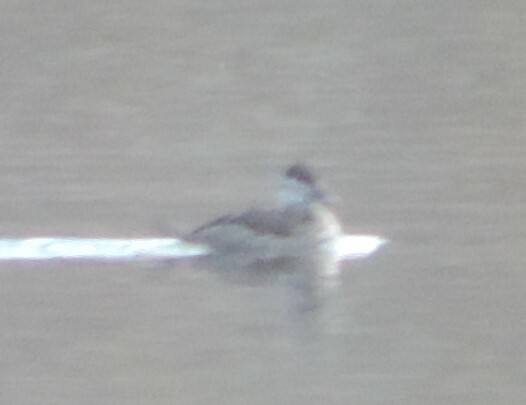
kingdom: Animalia
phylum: Chordata
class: Aves
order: Anseriformes
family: Anatidae
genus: Oxyura
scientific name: Oxyura jamaicensis
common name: Ruddy duck
